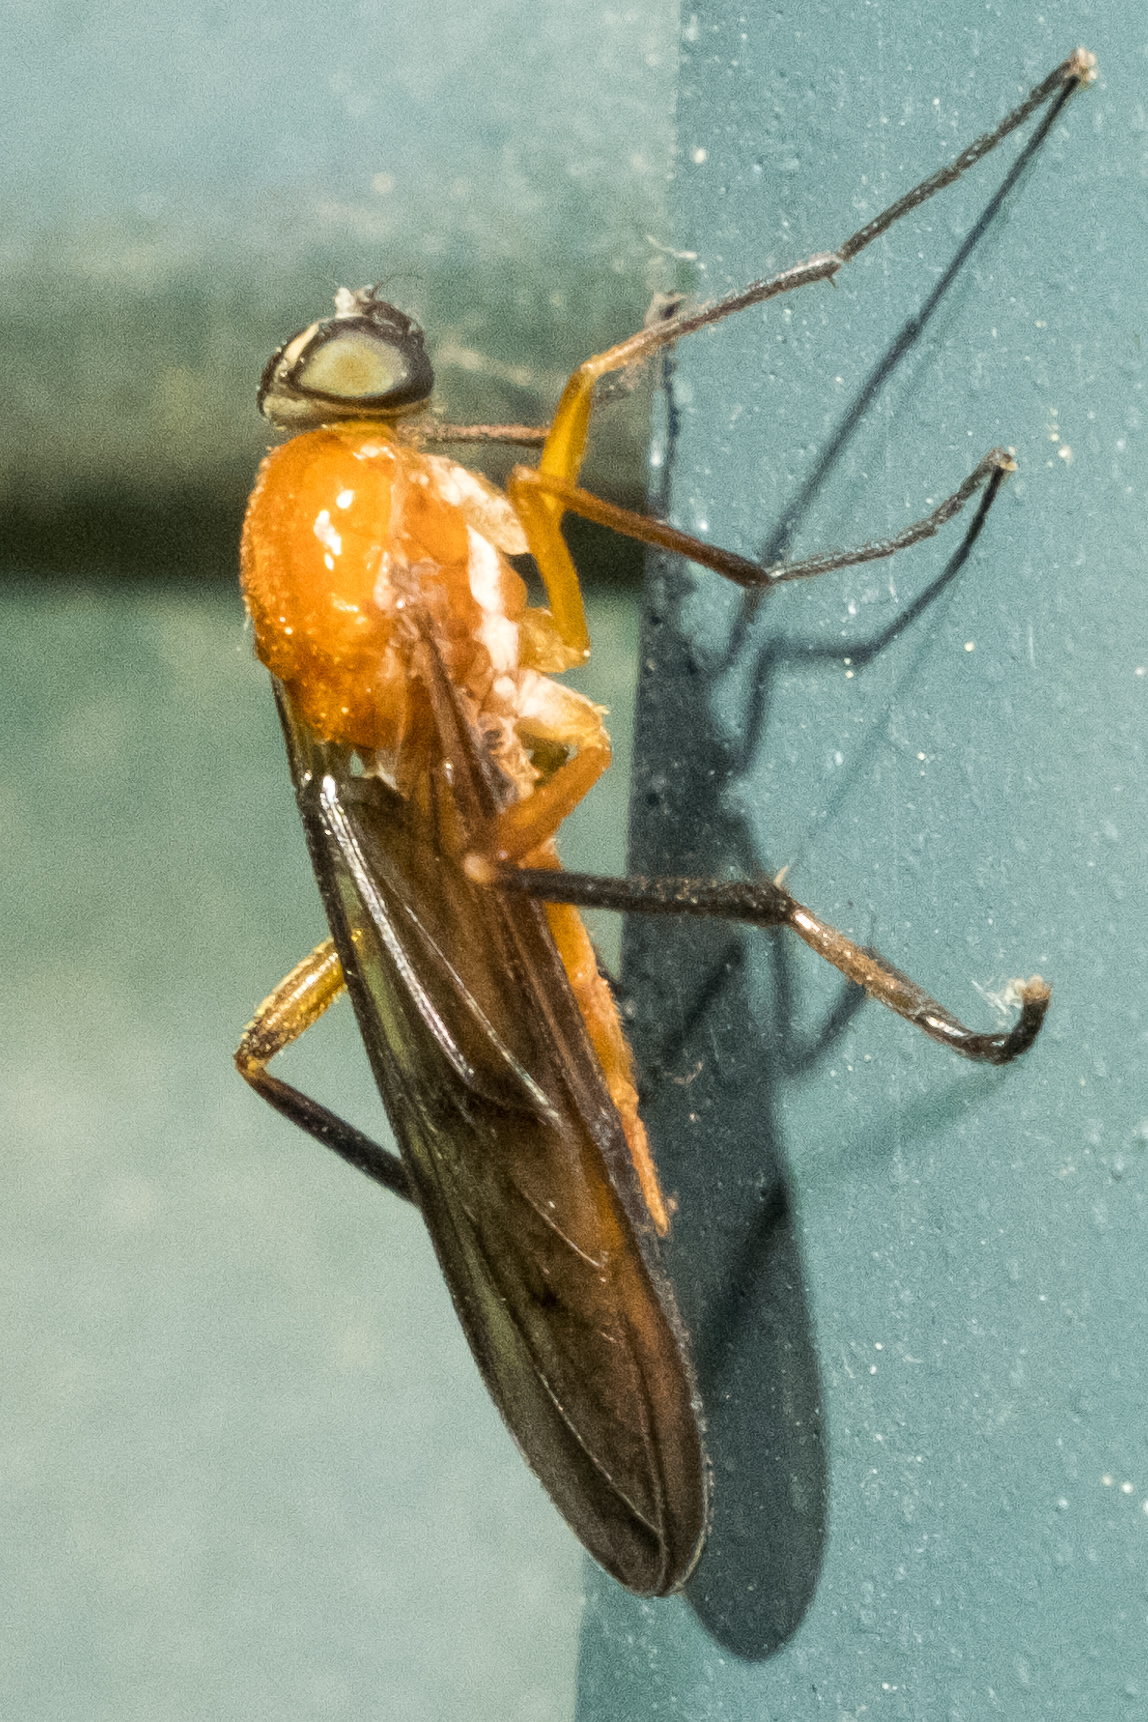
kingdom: Animalia
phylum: Arthropoda
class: Insecta
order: Diptera
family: Xylophagidae
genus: Dialysis
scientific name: Dialysis rufithorax
